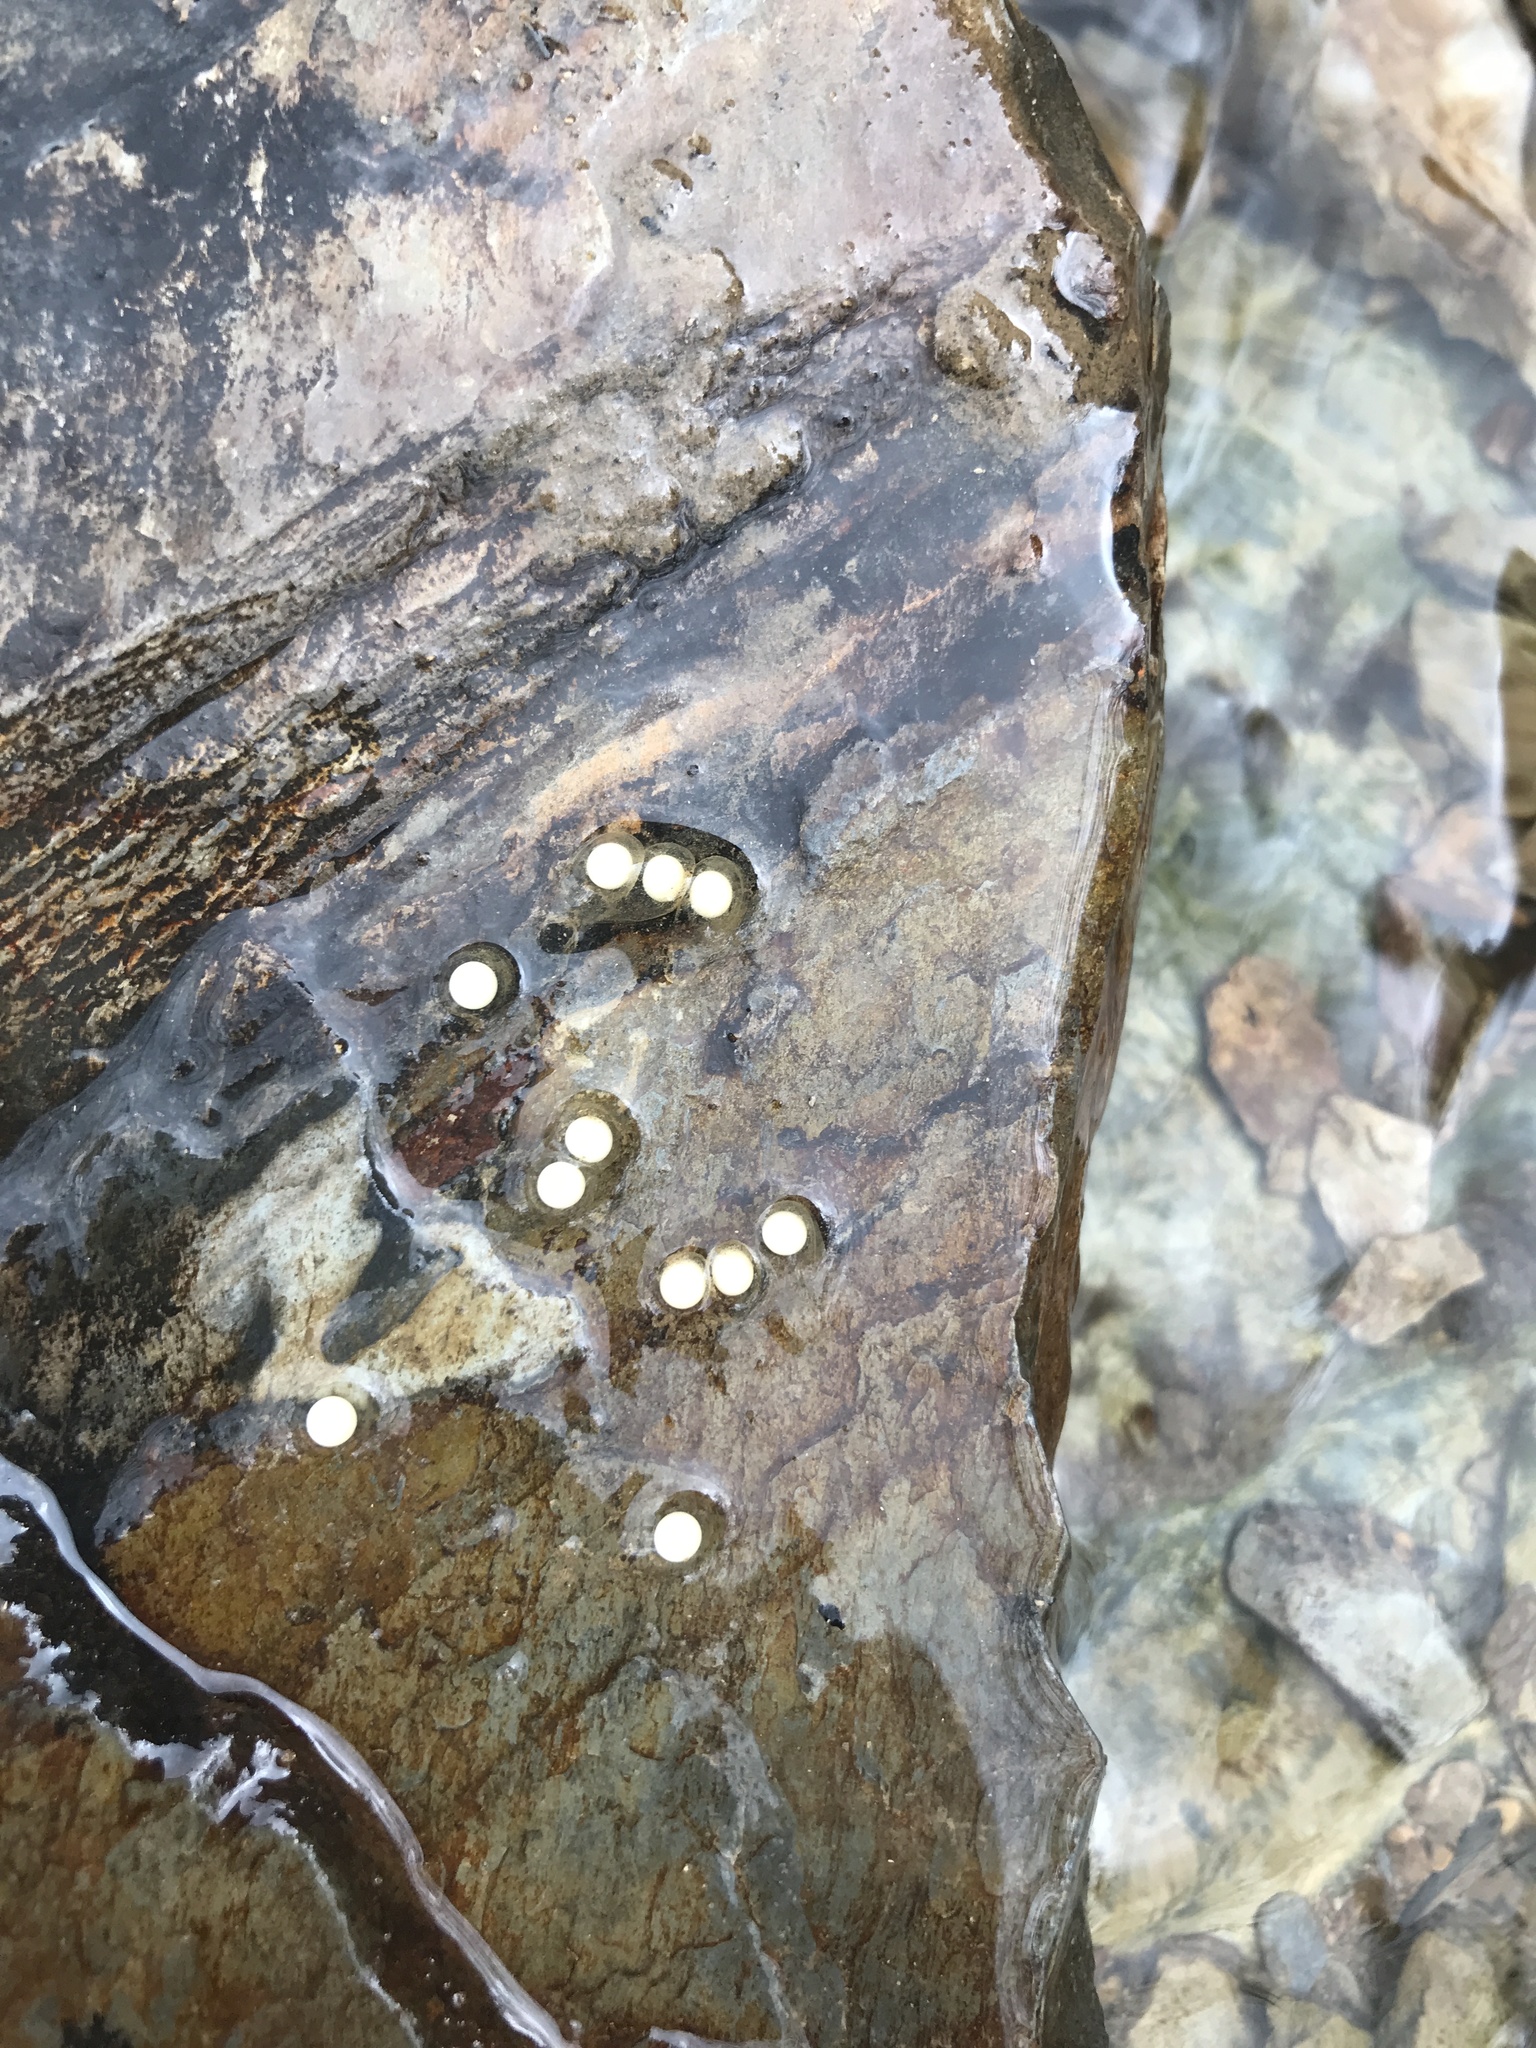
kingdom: Animalia
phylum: Chordata
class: Amphibia
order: Caudata
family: Plethodontidae
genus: Eurycea
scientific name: Eurycea bislineata
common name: Northern two-lined salamander
